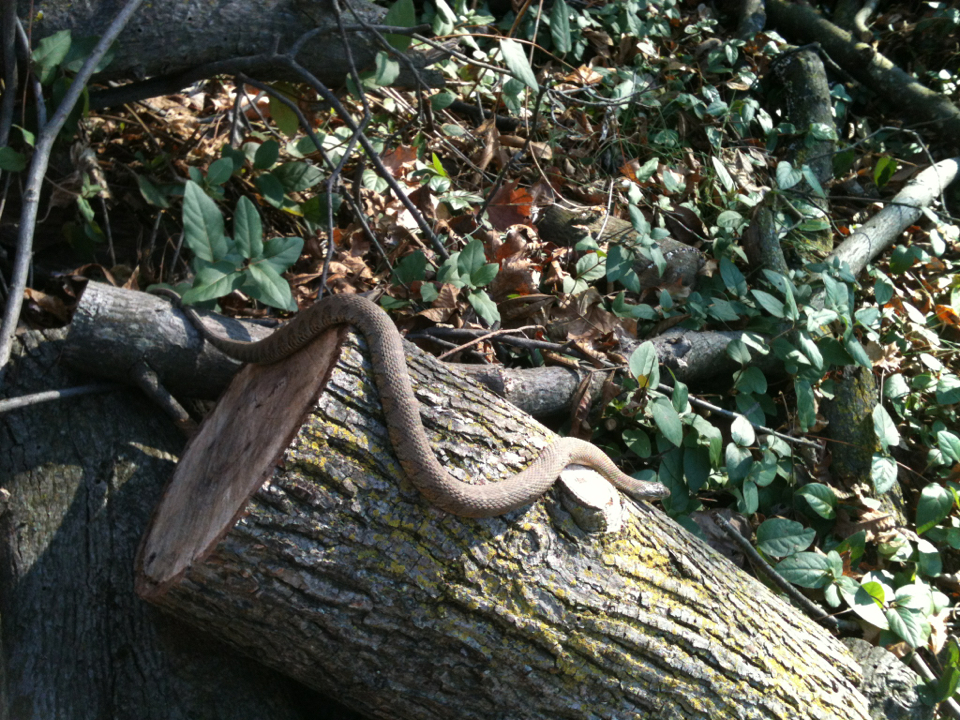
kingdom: Animalia
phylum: Chordata
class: Squamata
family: Colubridae
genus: Nerodia
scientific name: Nerodia sipedon
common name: Northern water snake
